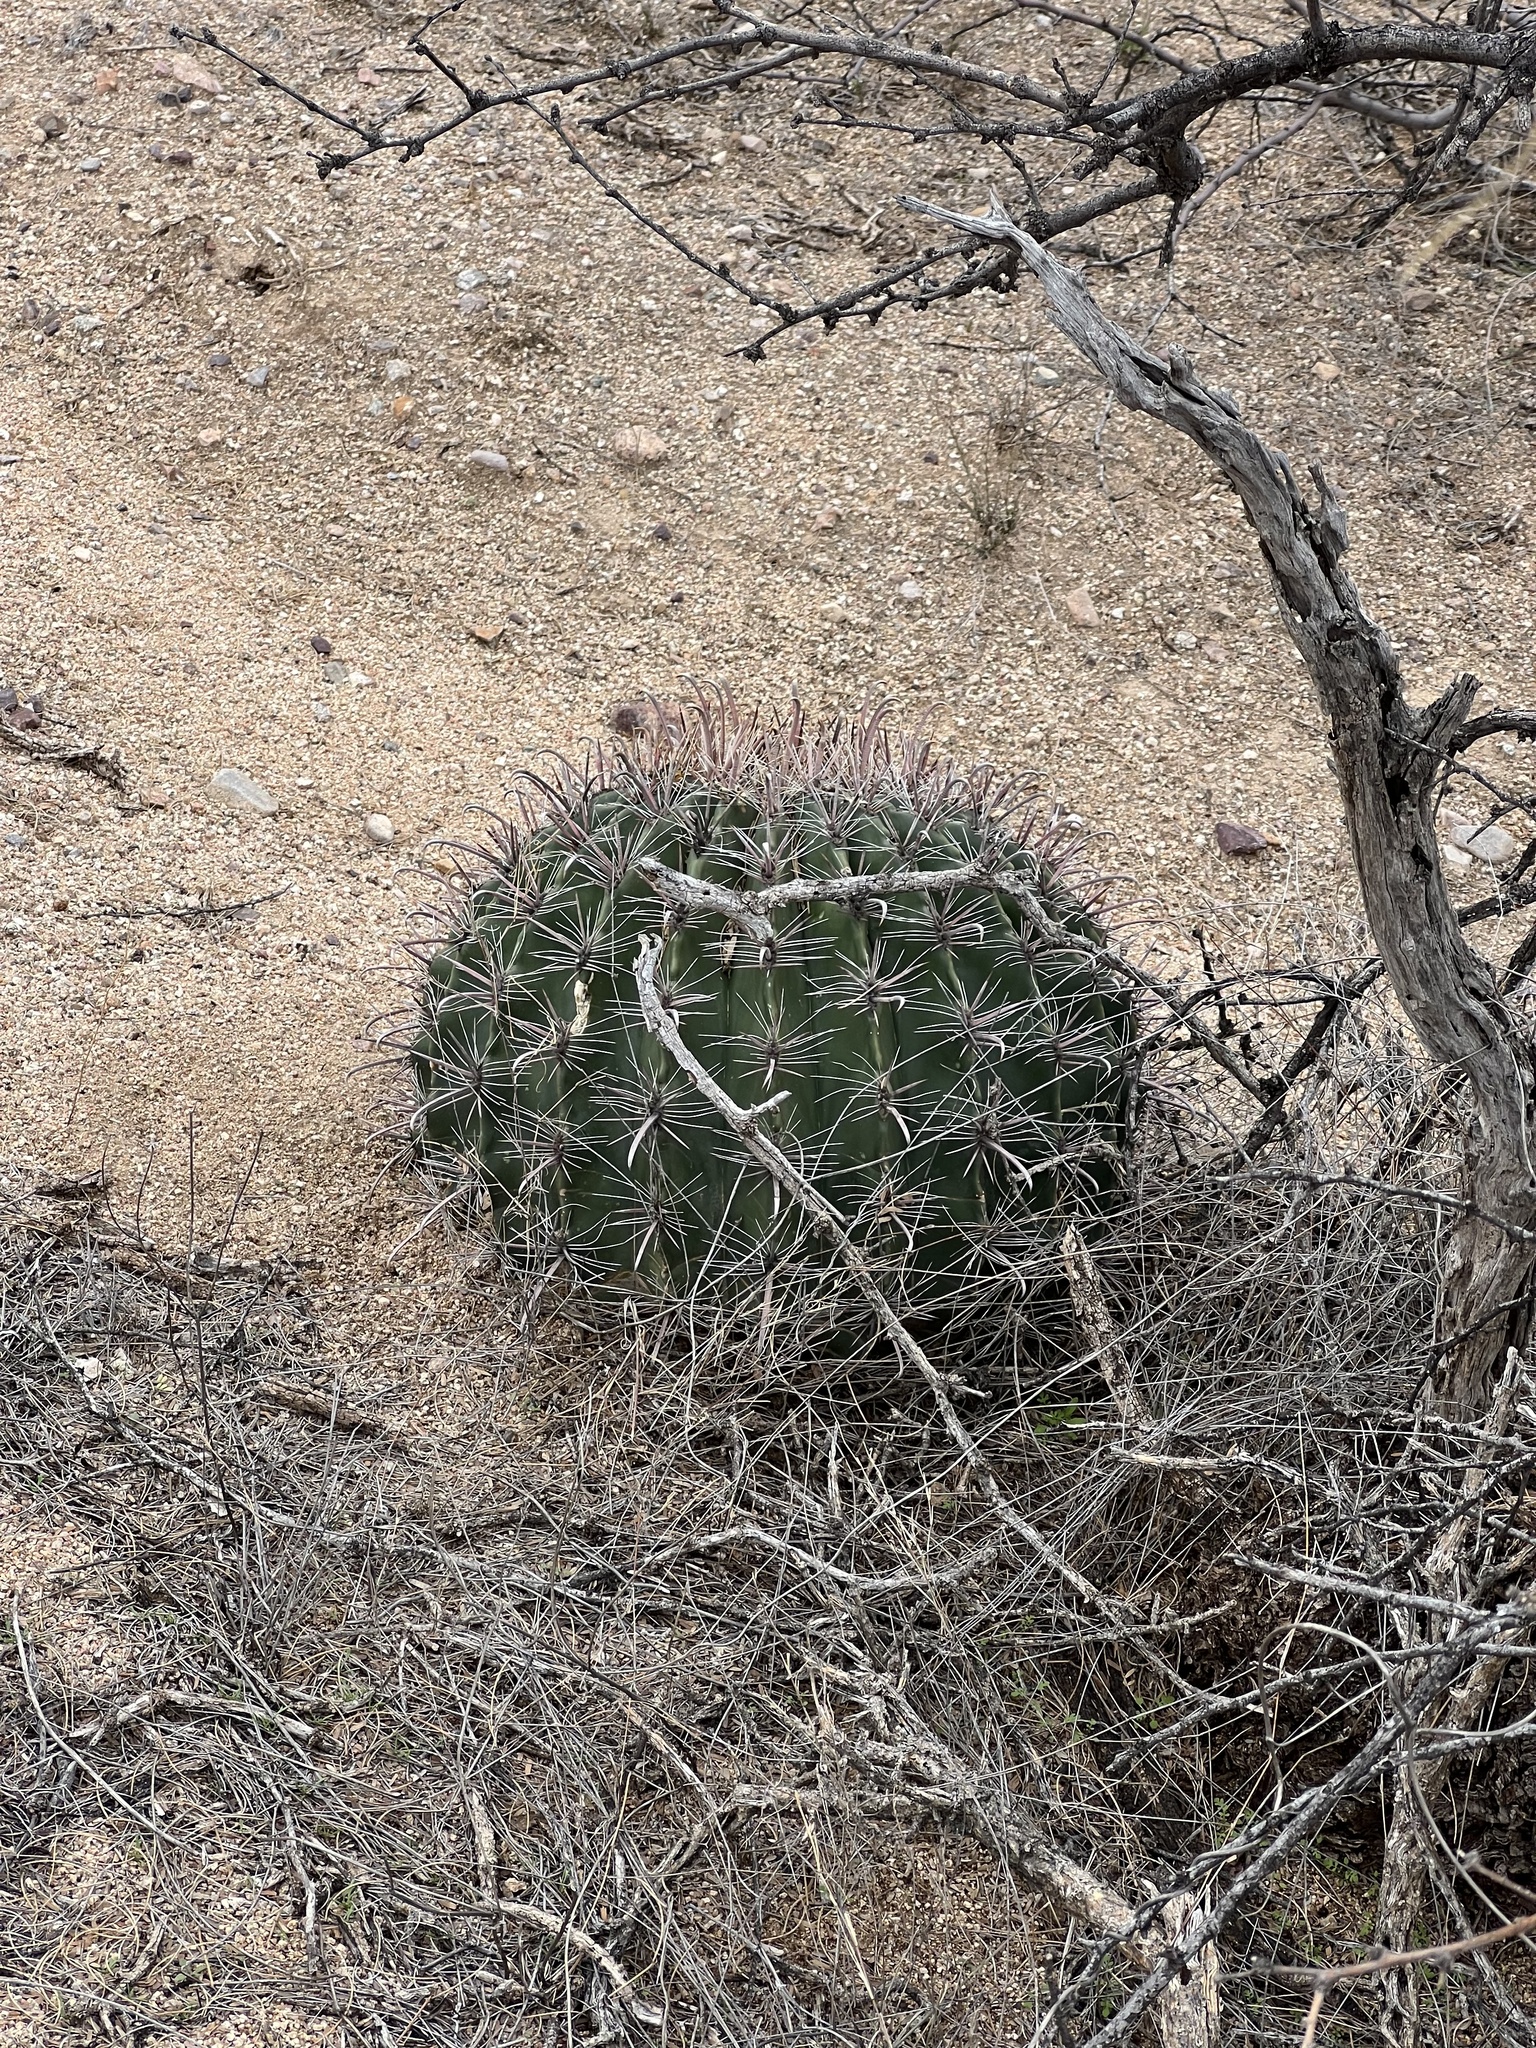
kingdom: Plantae
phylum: Tracheophyta
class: Magnoliopsida
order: Caryophyllales
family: Cactaceae
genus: Ferocactus
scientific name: Ferocactus wislizeni
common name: Candy barrel cactus
